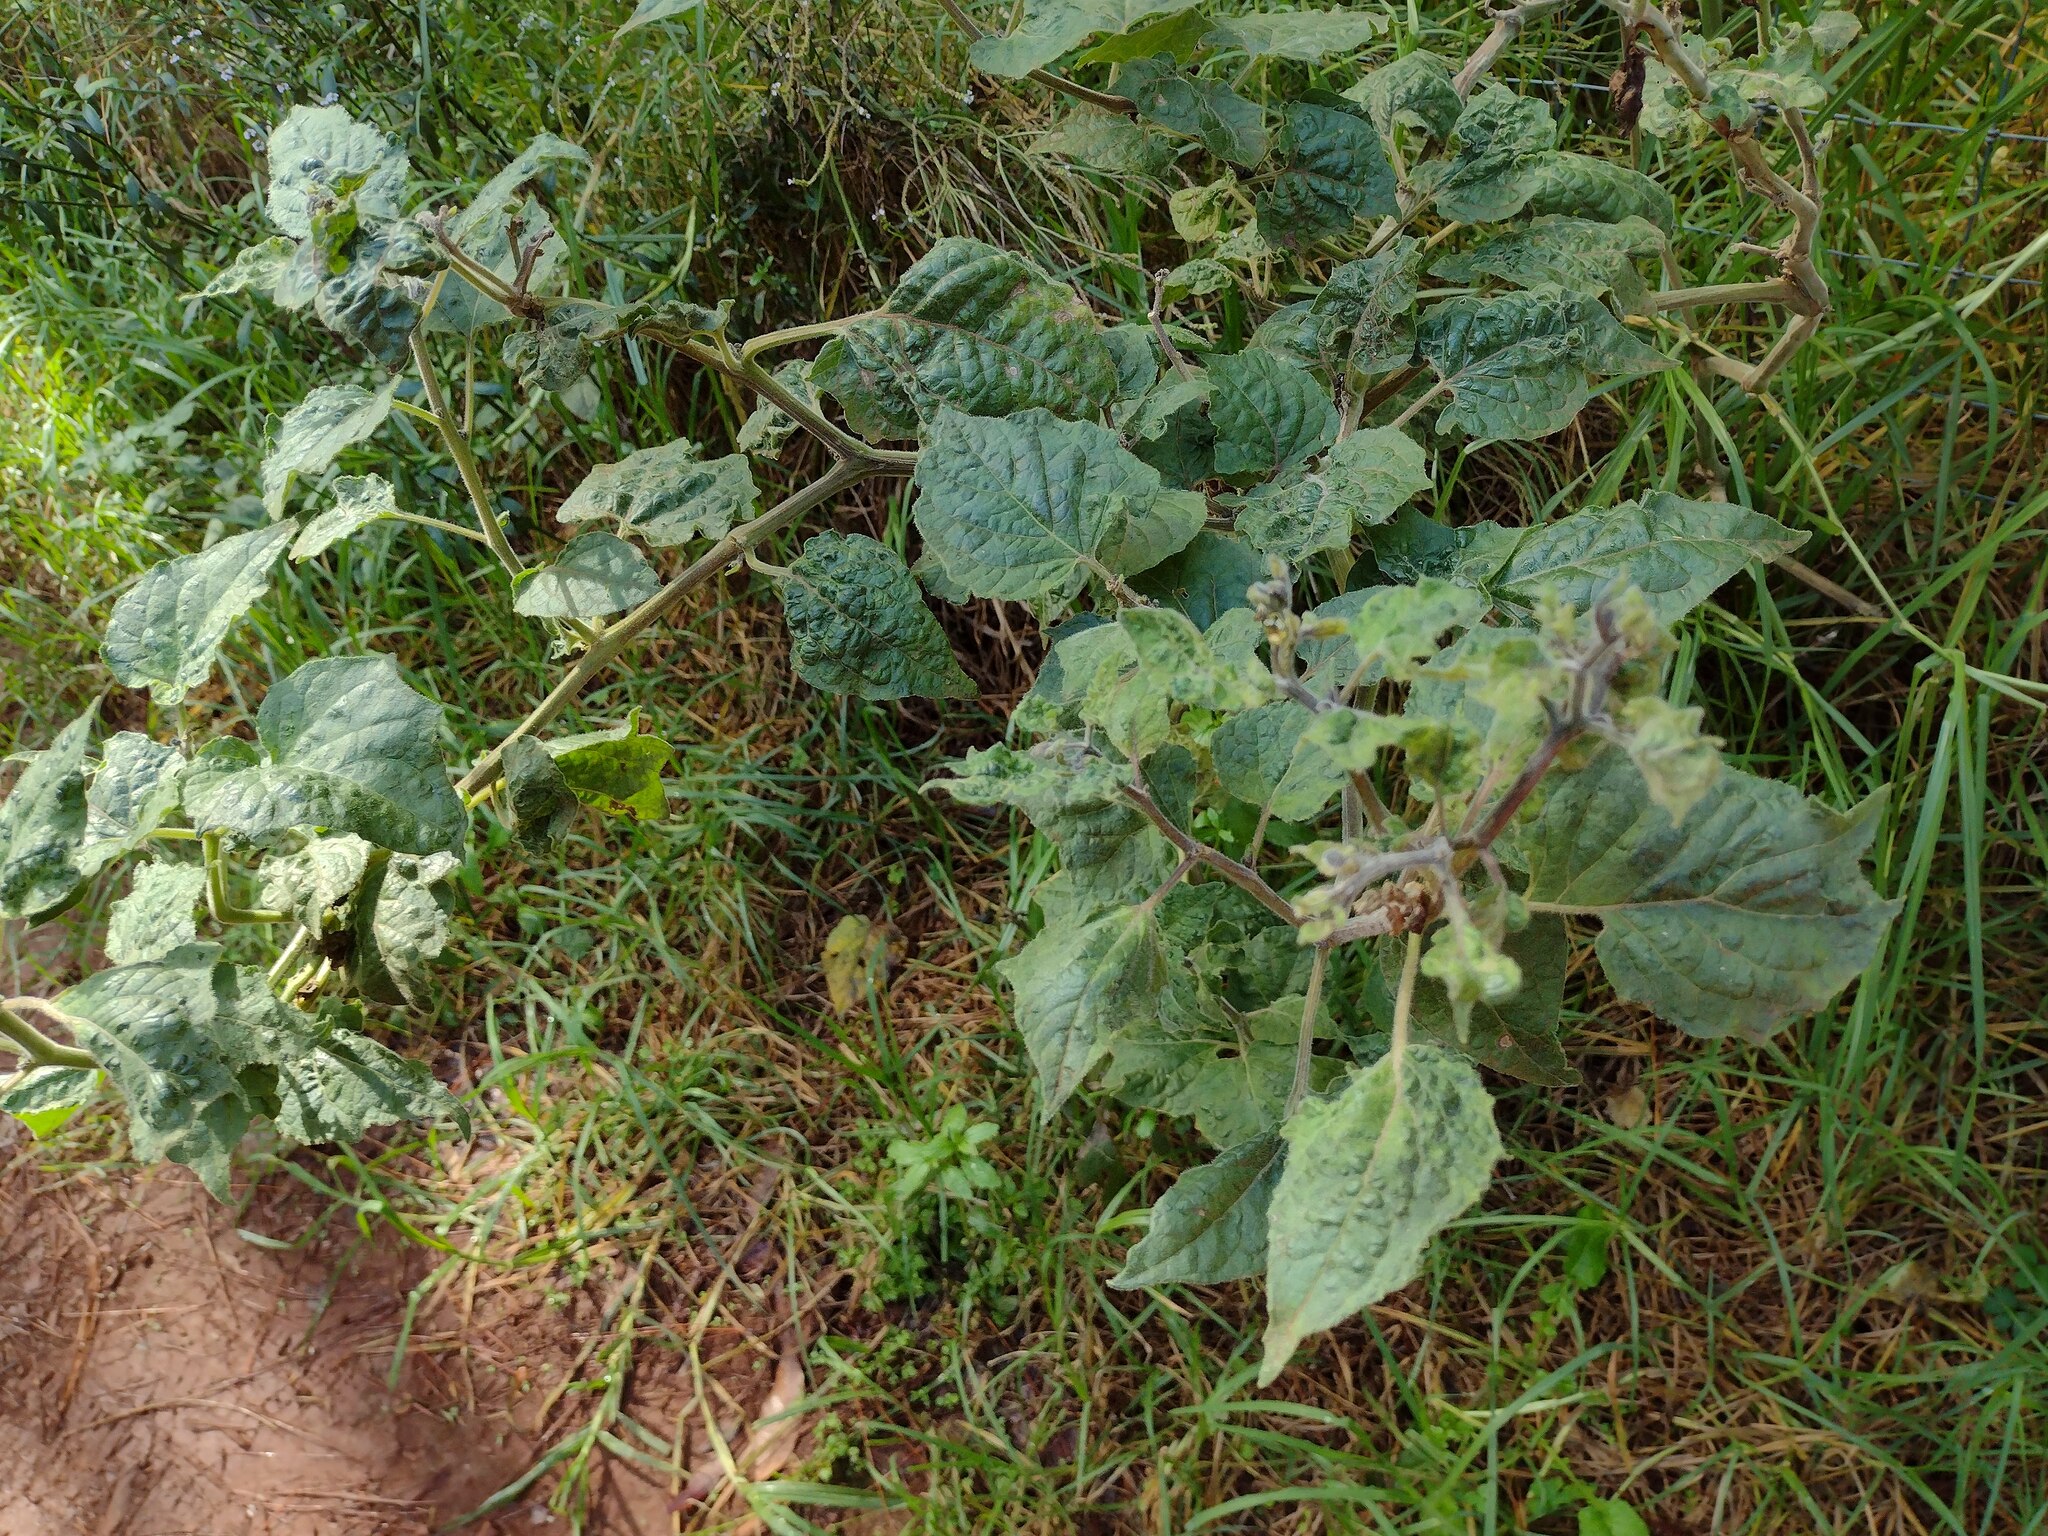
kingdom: Plantae
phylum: Tracheophyta
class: Magnoliopsida
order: Solanales
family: Solanaceae
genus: Physalis
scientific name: Physalis peruviana
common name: Cape-gooseberry
